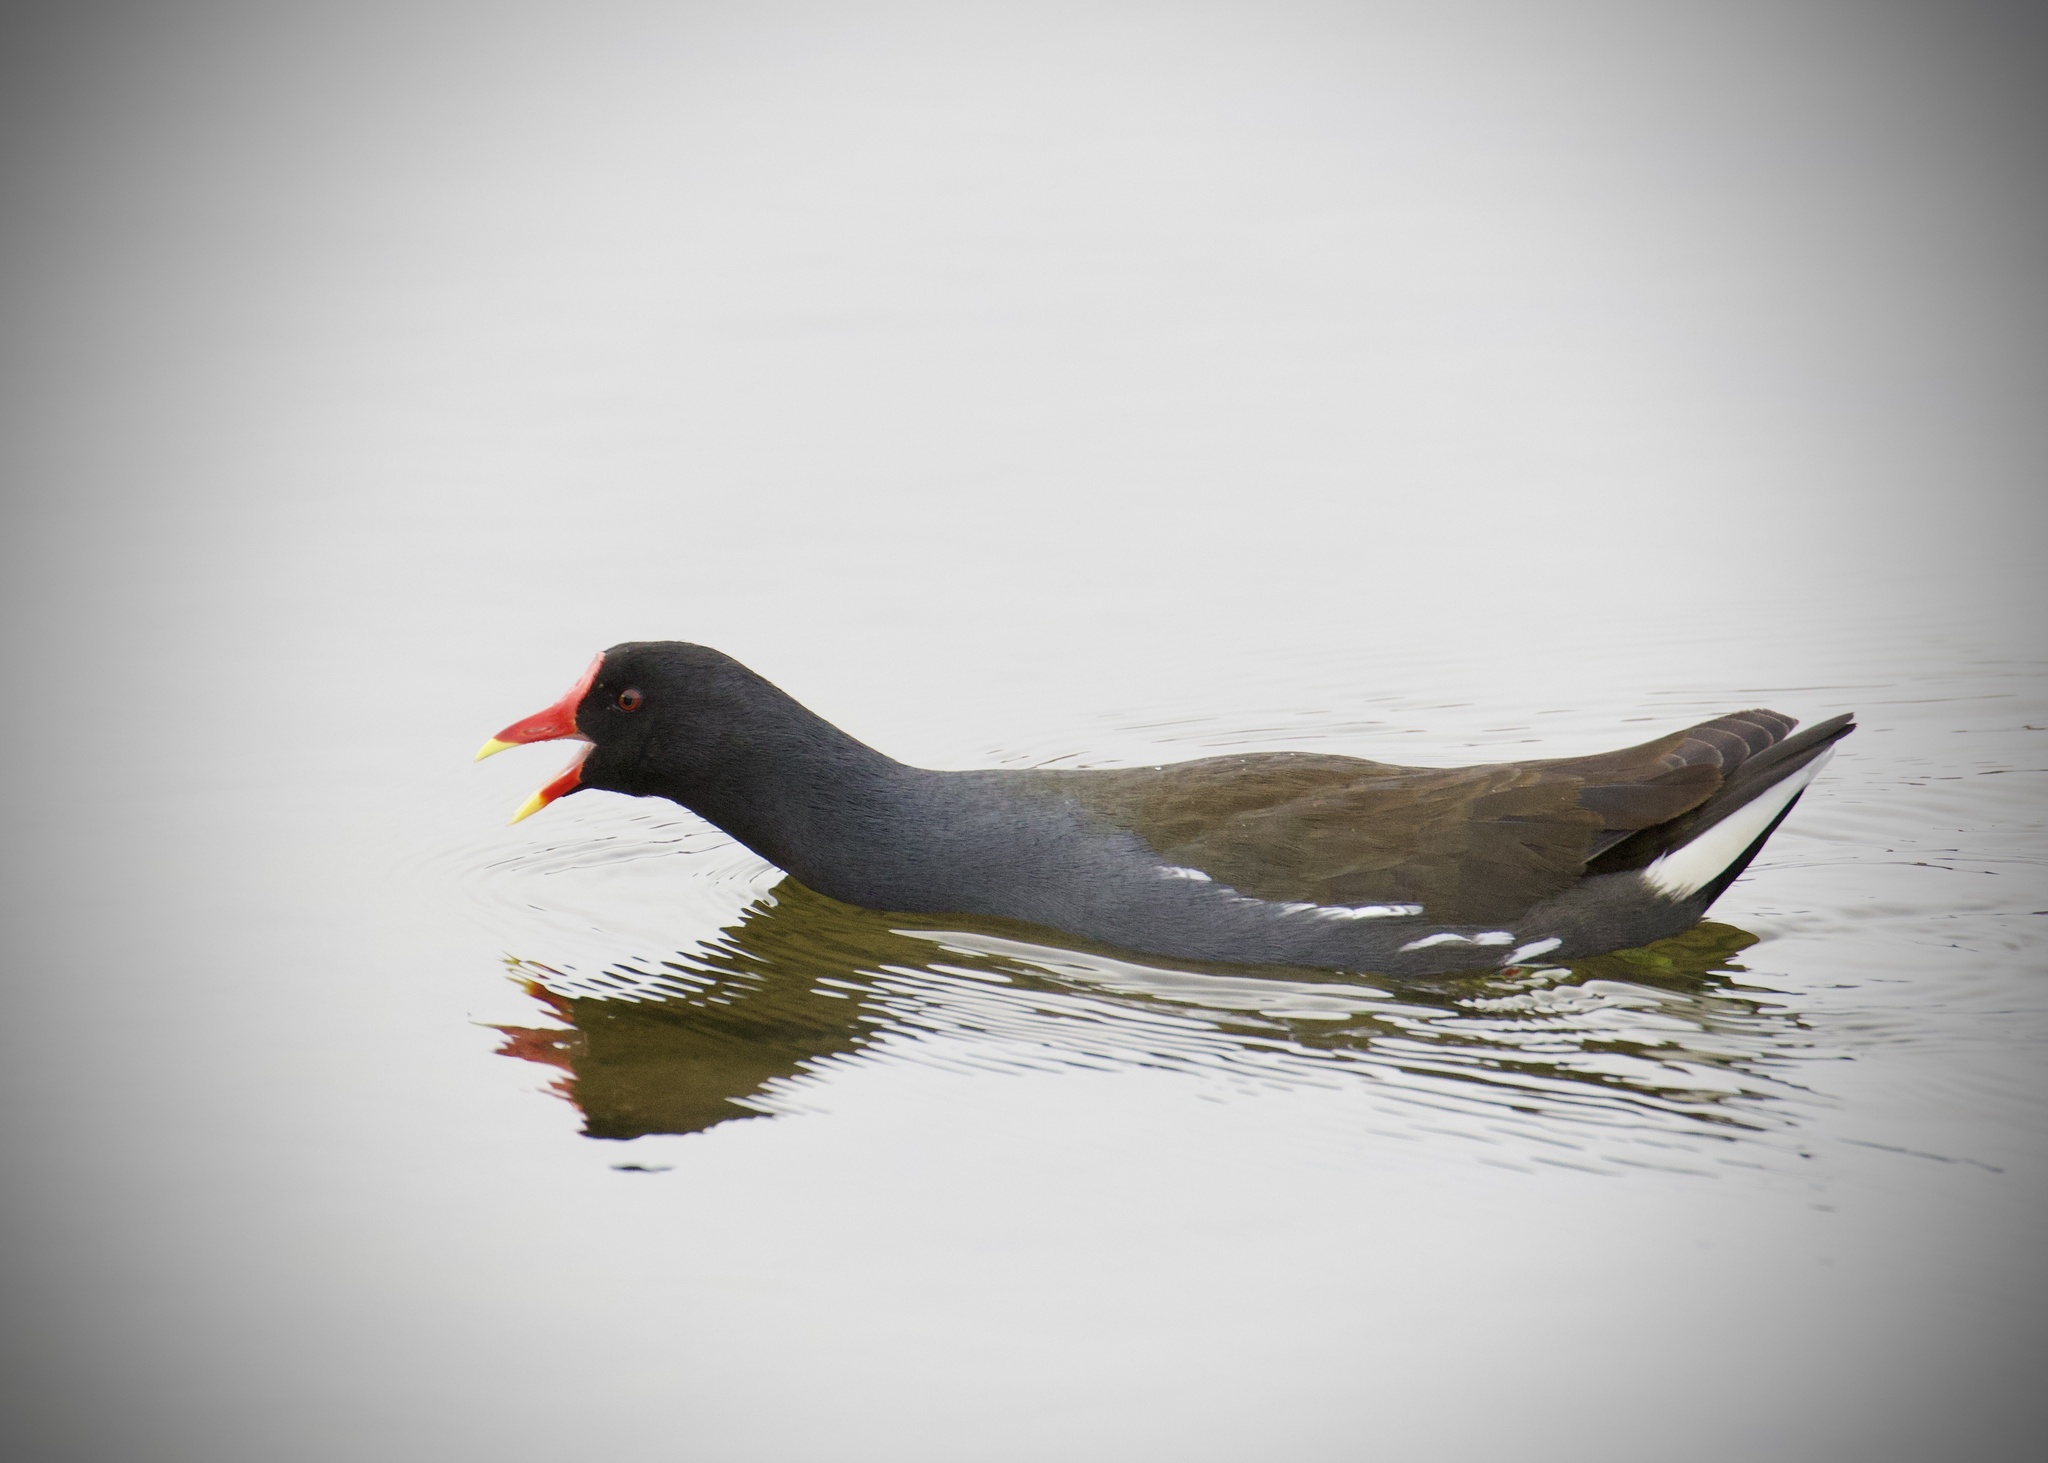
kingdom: Animalia
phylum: Chordata
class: Aves
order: Gruiformes
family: Rallidae
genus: Gallinula
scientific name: Gallinula chloropus
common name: Common moorhen
